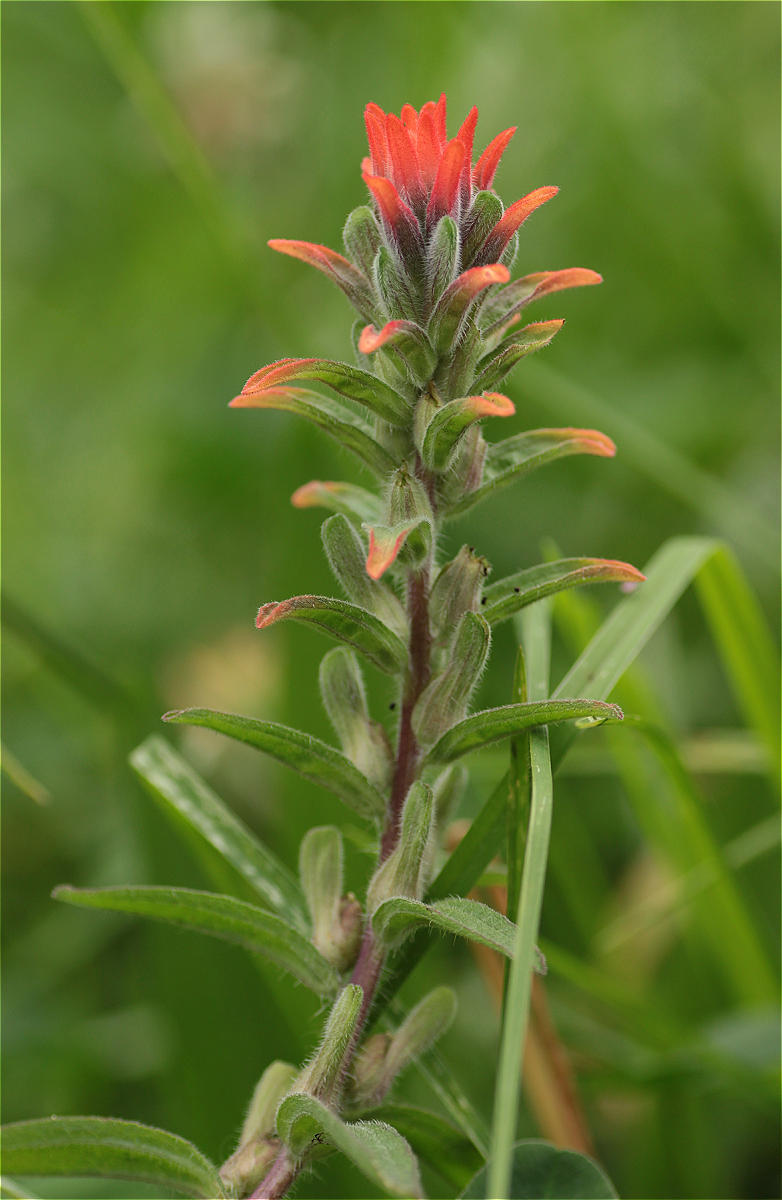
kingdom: Plantae
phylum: Tracheophyta
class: Magnoliopsida
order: Lamiales
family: Orobanchaceae
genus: Castilleja
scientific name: Castilleja arvensis
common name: Indian paintbrush
